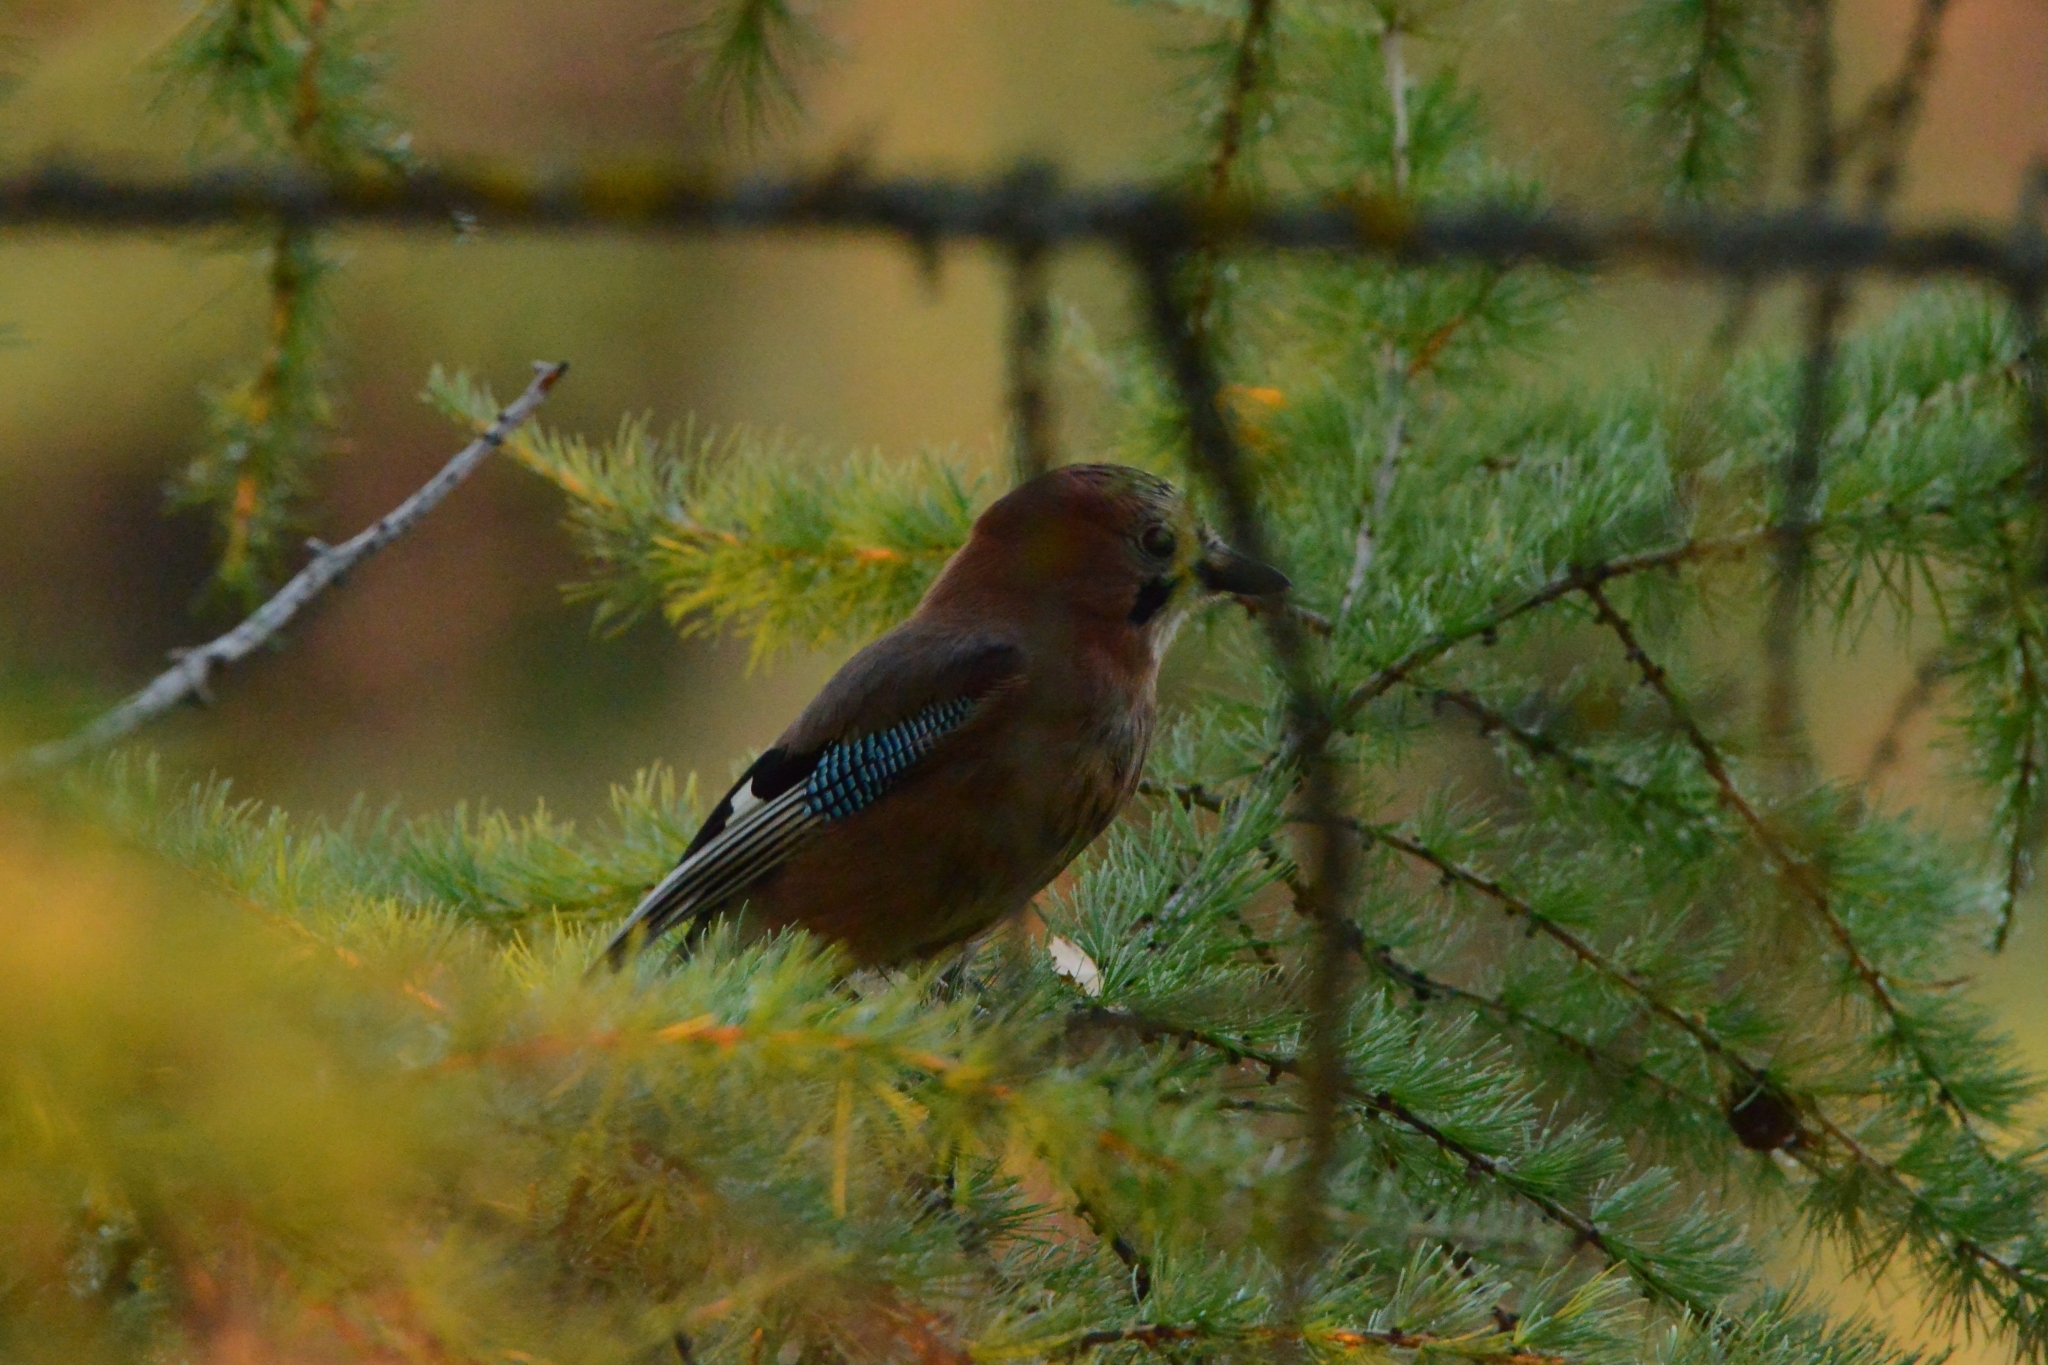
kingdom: Animalia
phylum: Chordata
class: Aves
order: Passeriformes
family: Corvidae
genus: Garrulus
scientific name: Garrulus glandarius
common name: Eurasian jay
